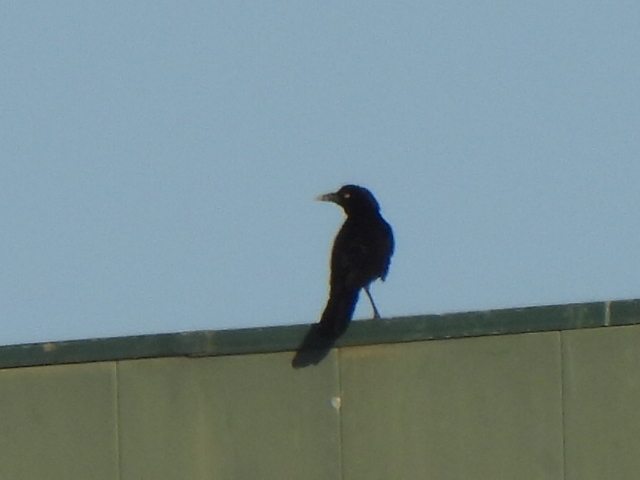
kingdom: Animalia
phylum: Chordata
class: Aves
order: Passeriformes
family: Icteridae
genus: Quiscalus
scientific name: Quiscalus mexicanus
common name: Great-tailed grackle
